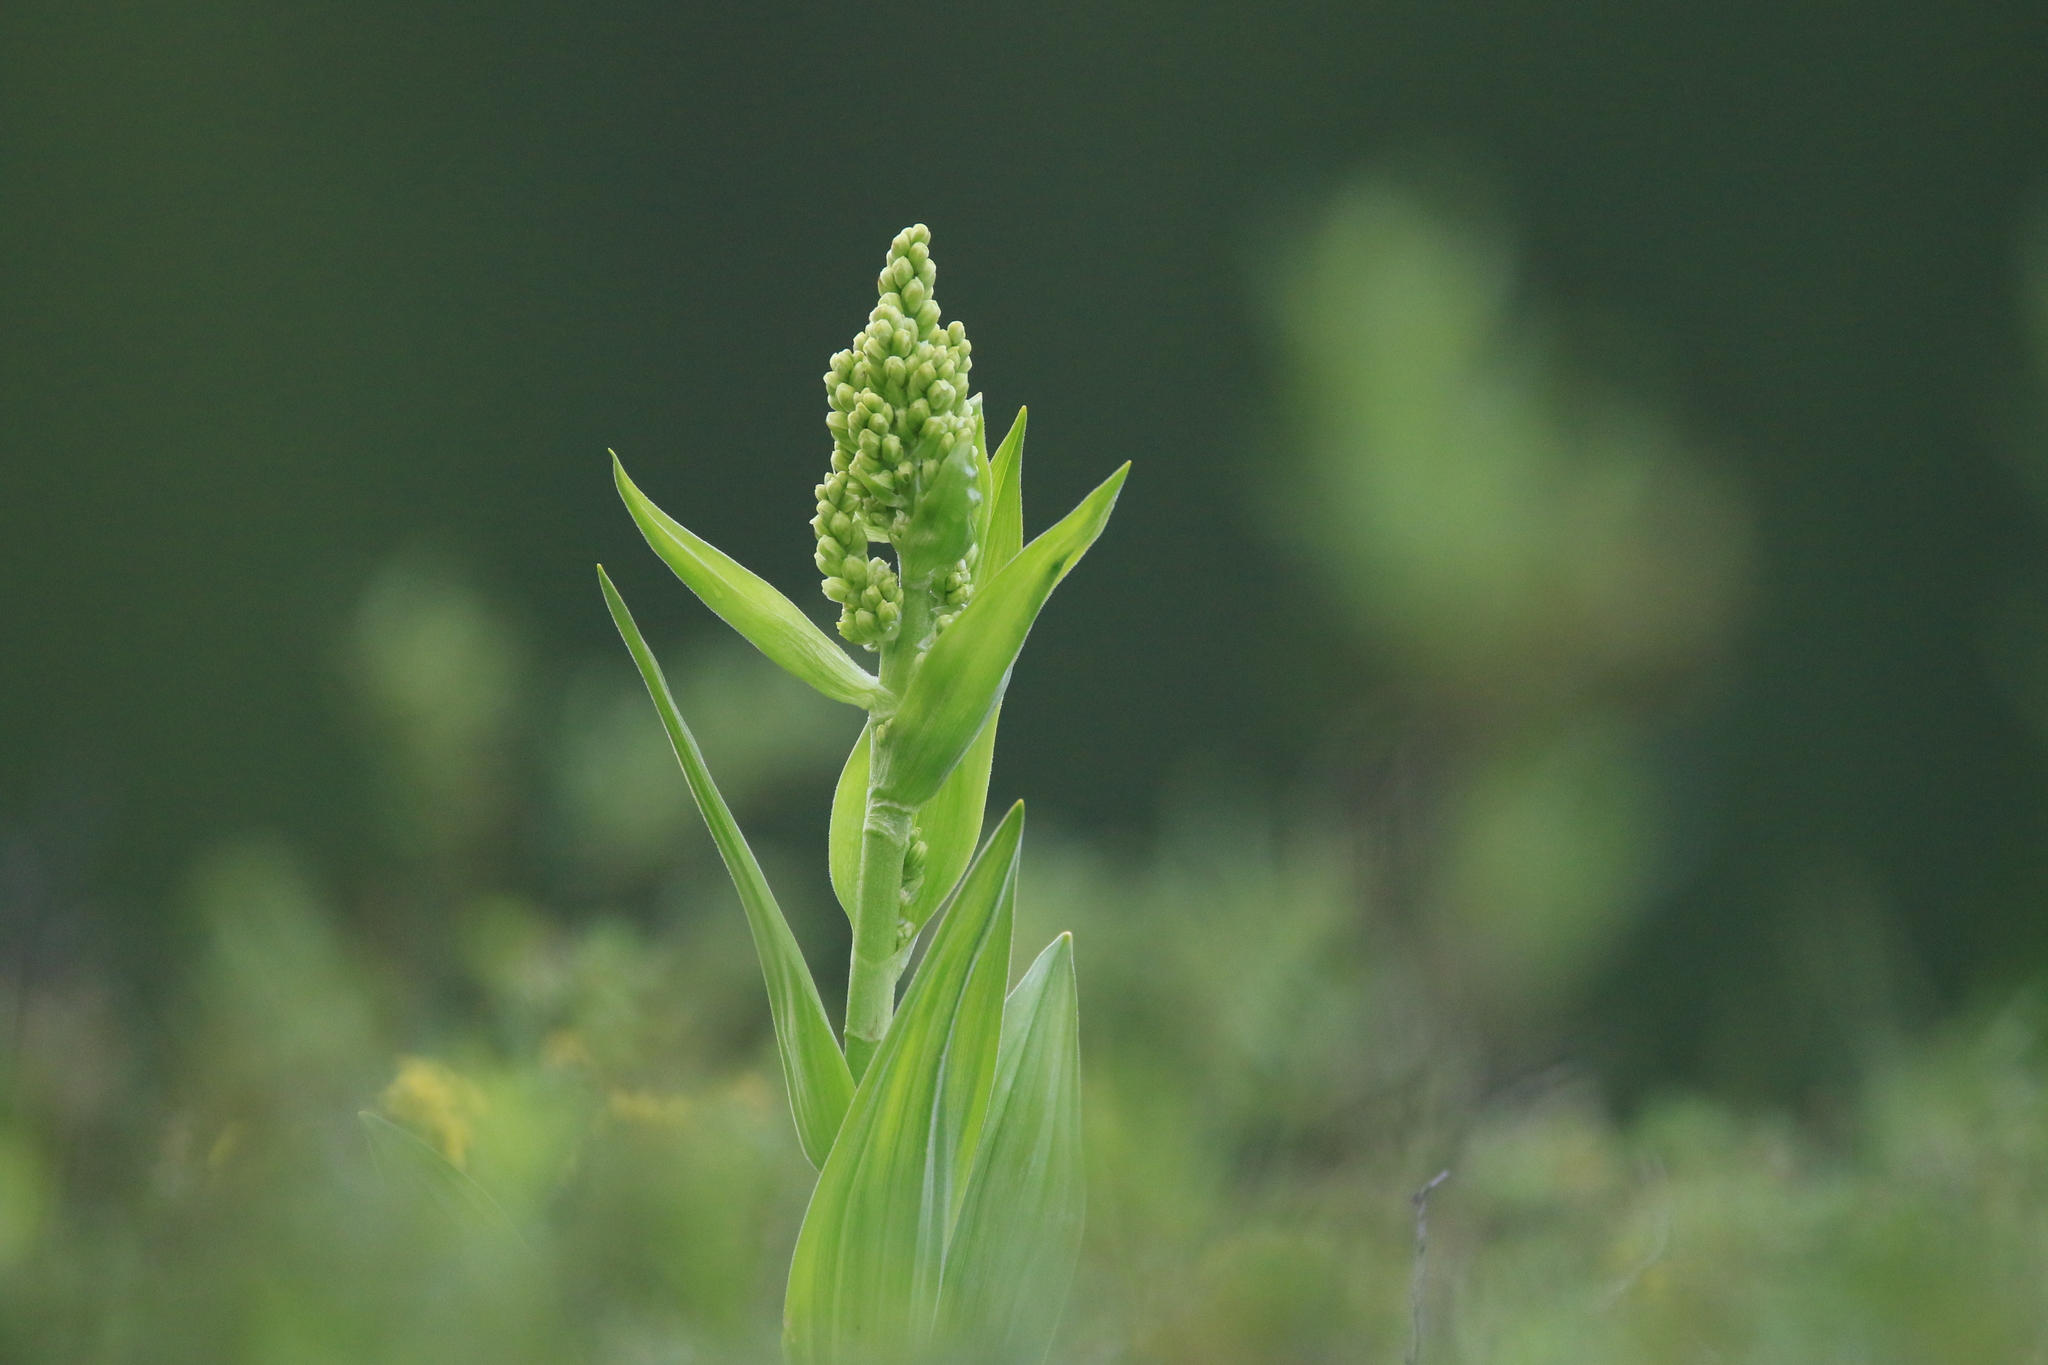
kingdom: Plantae
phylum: Tracheophyta
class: Liliopsida
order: Liliales
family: Melanthiaceae
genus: Veratrum
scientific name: Veratrum lobelianum
